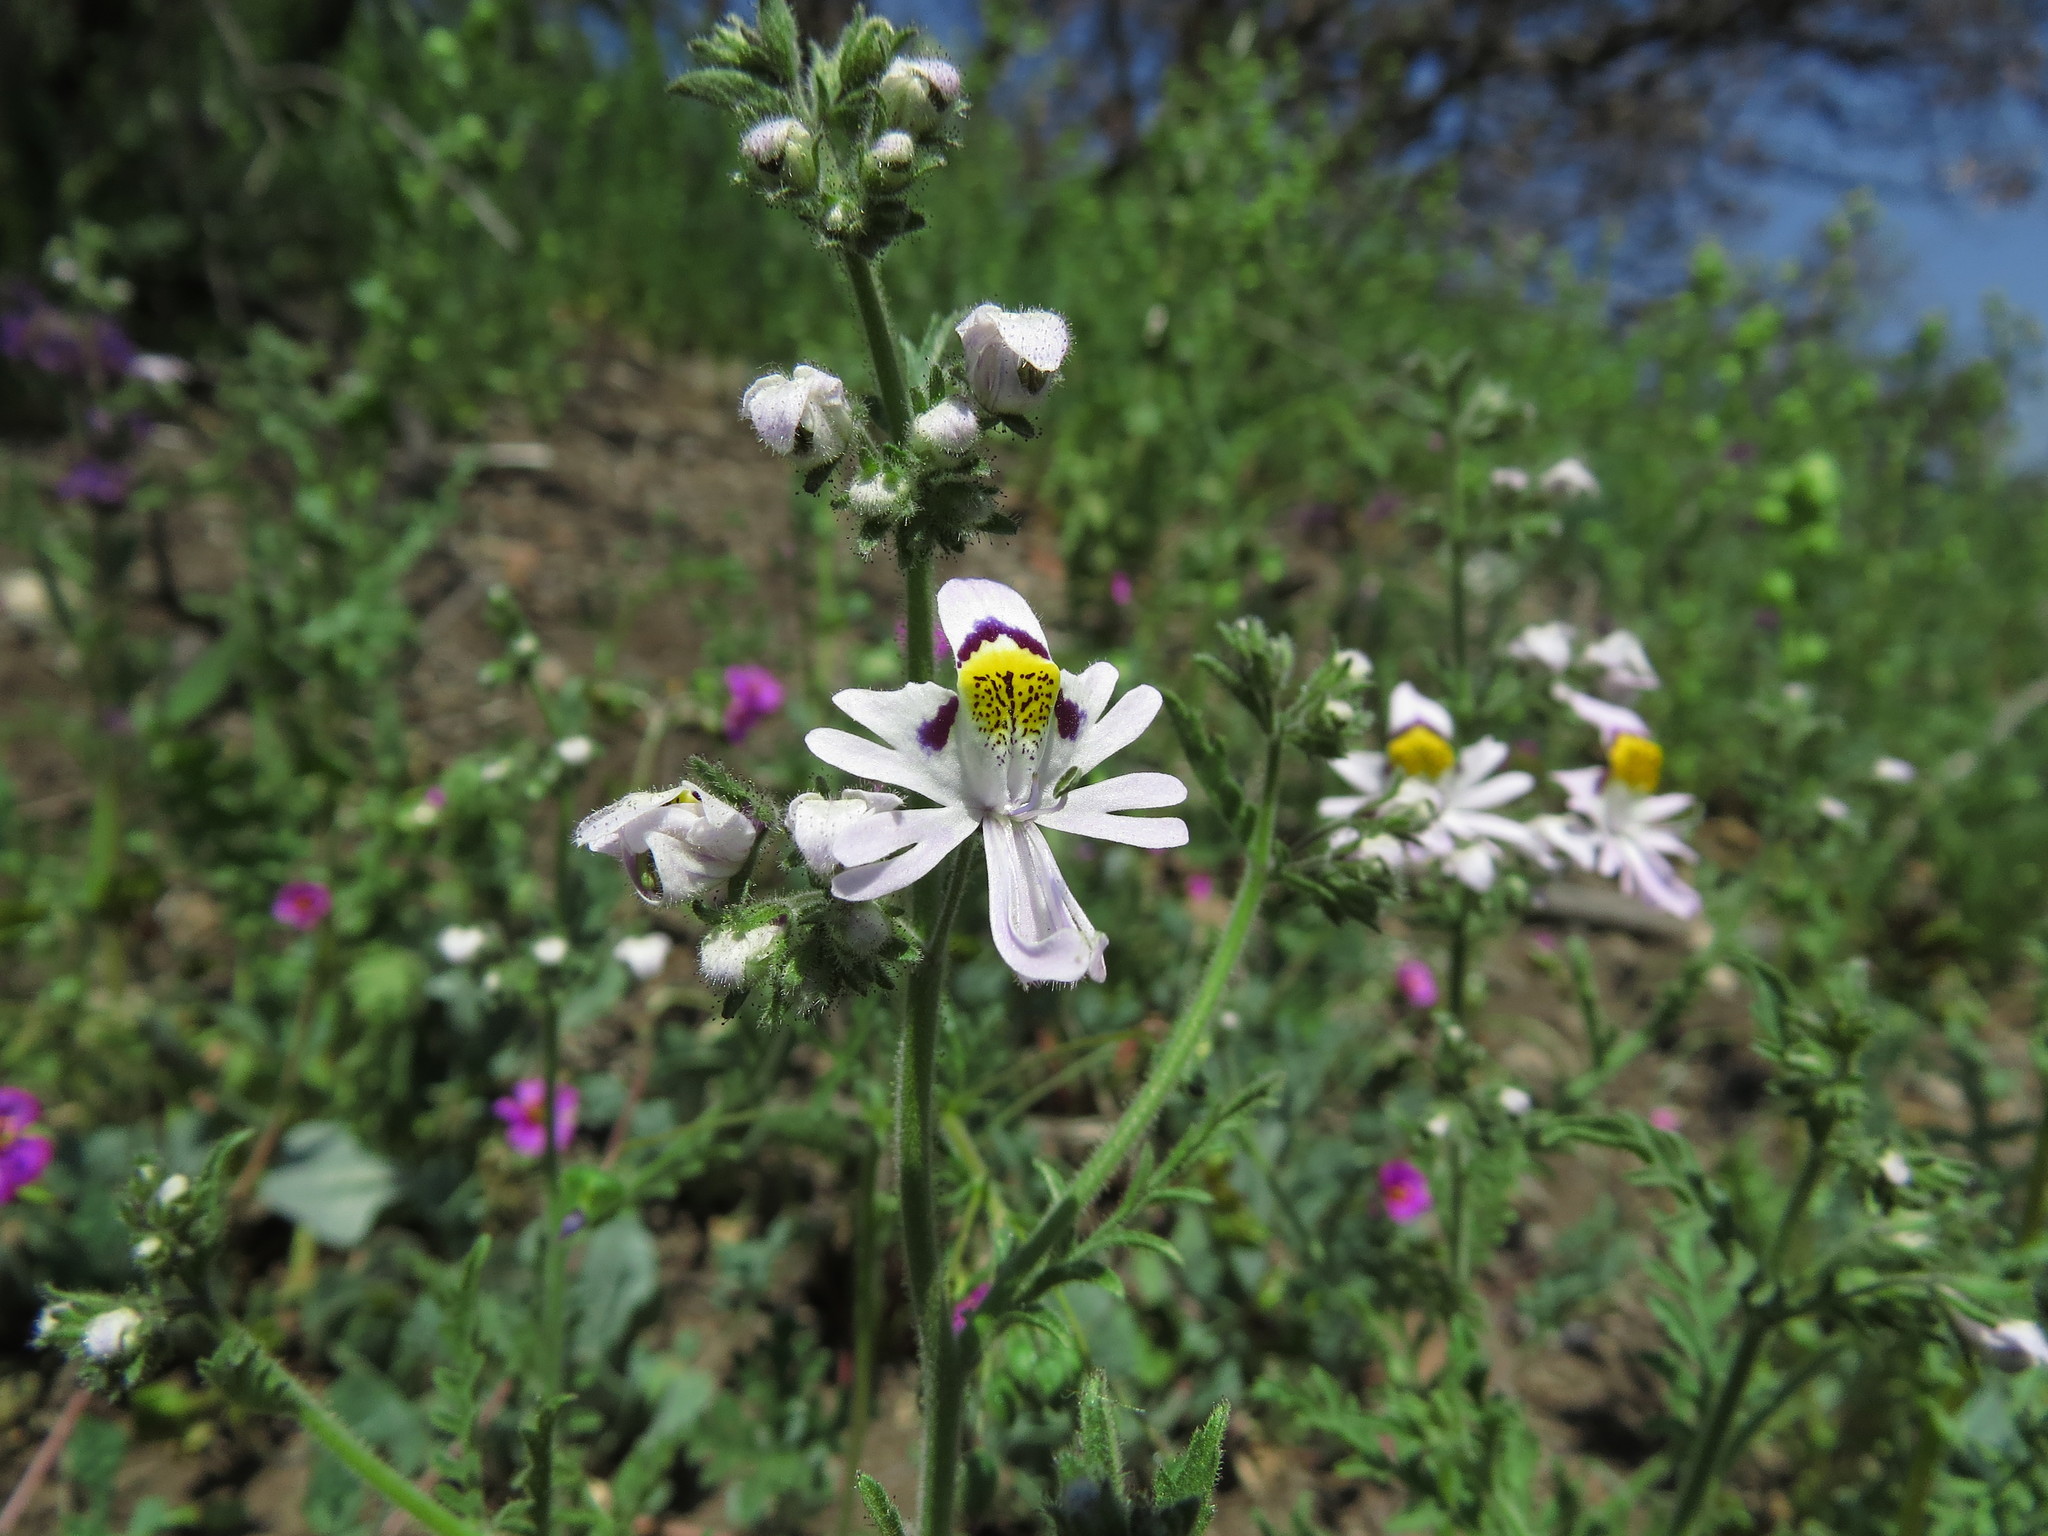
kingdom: Plantae
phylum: Tracheophyta
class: Magnoliopsida
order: Solanales
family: Solanaceae
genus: Schizanthus
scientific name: Schizanthus pinnatus
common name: Poor-man's-orchid
